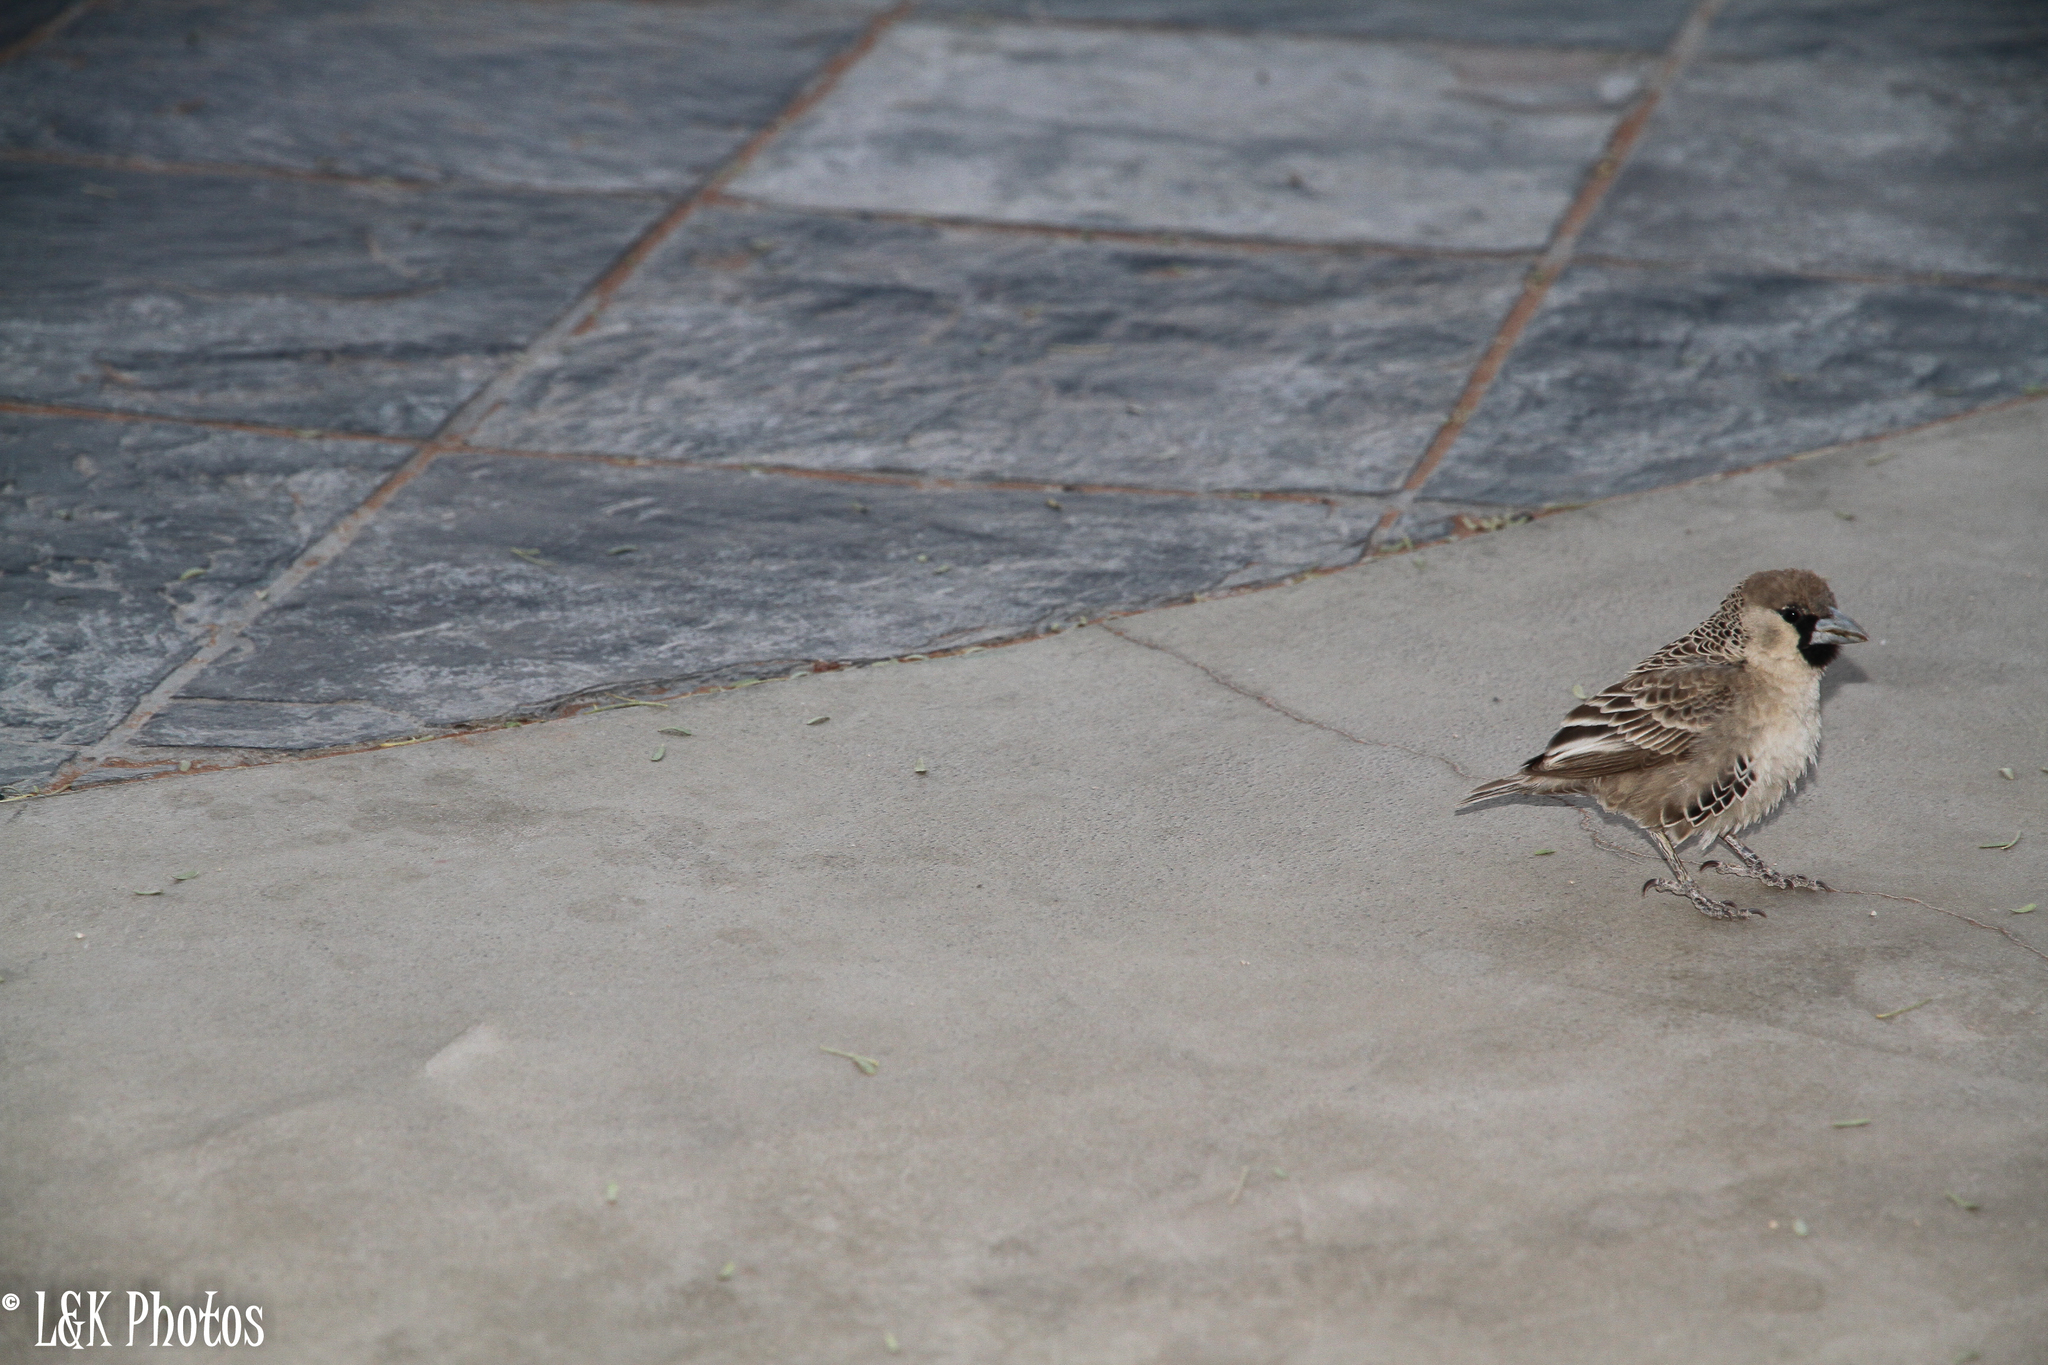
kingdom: Animalia
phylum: Chordata
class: Aves
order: Passeriformes
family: Passeridae
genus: Philetairus
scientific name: Philetairus socius
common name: Sociable weaver
